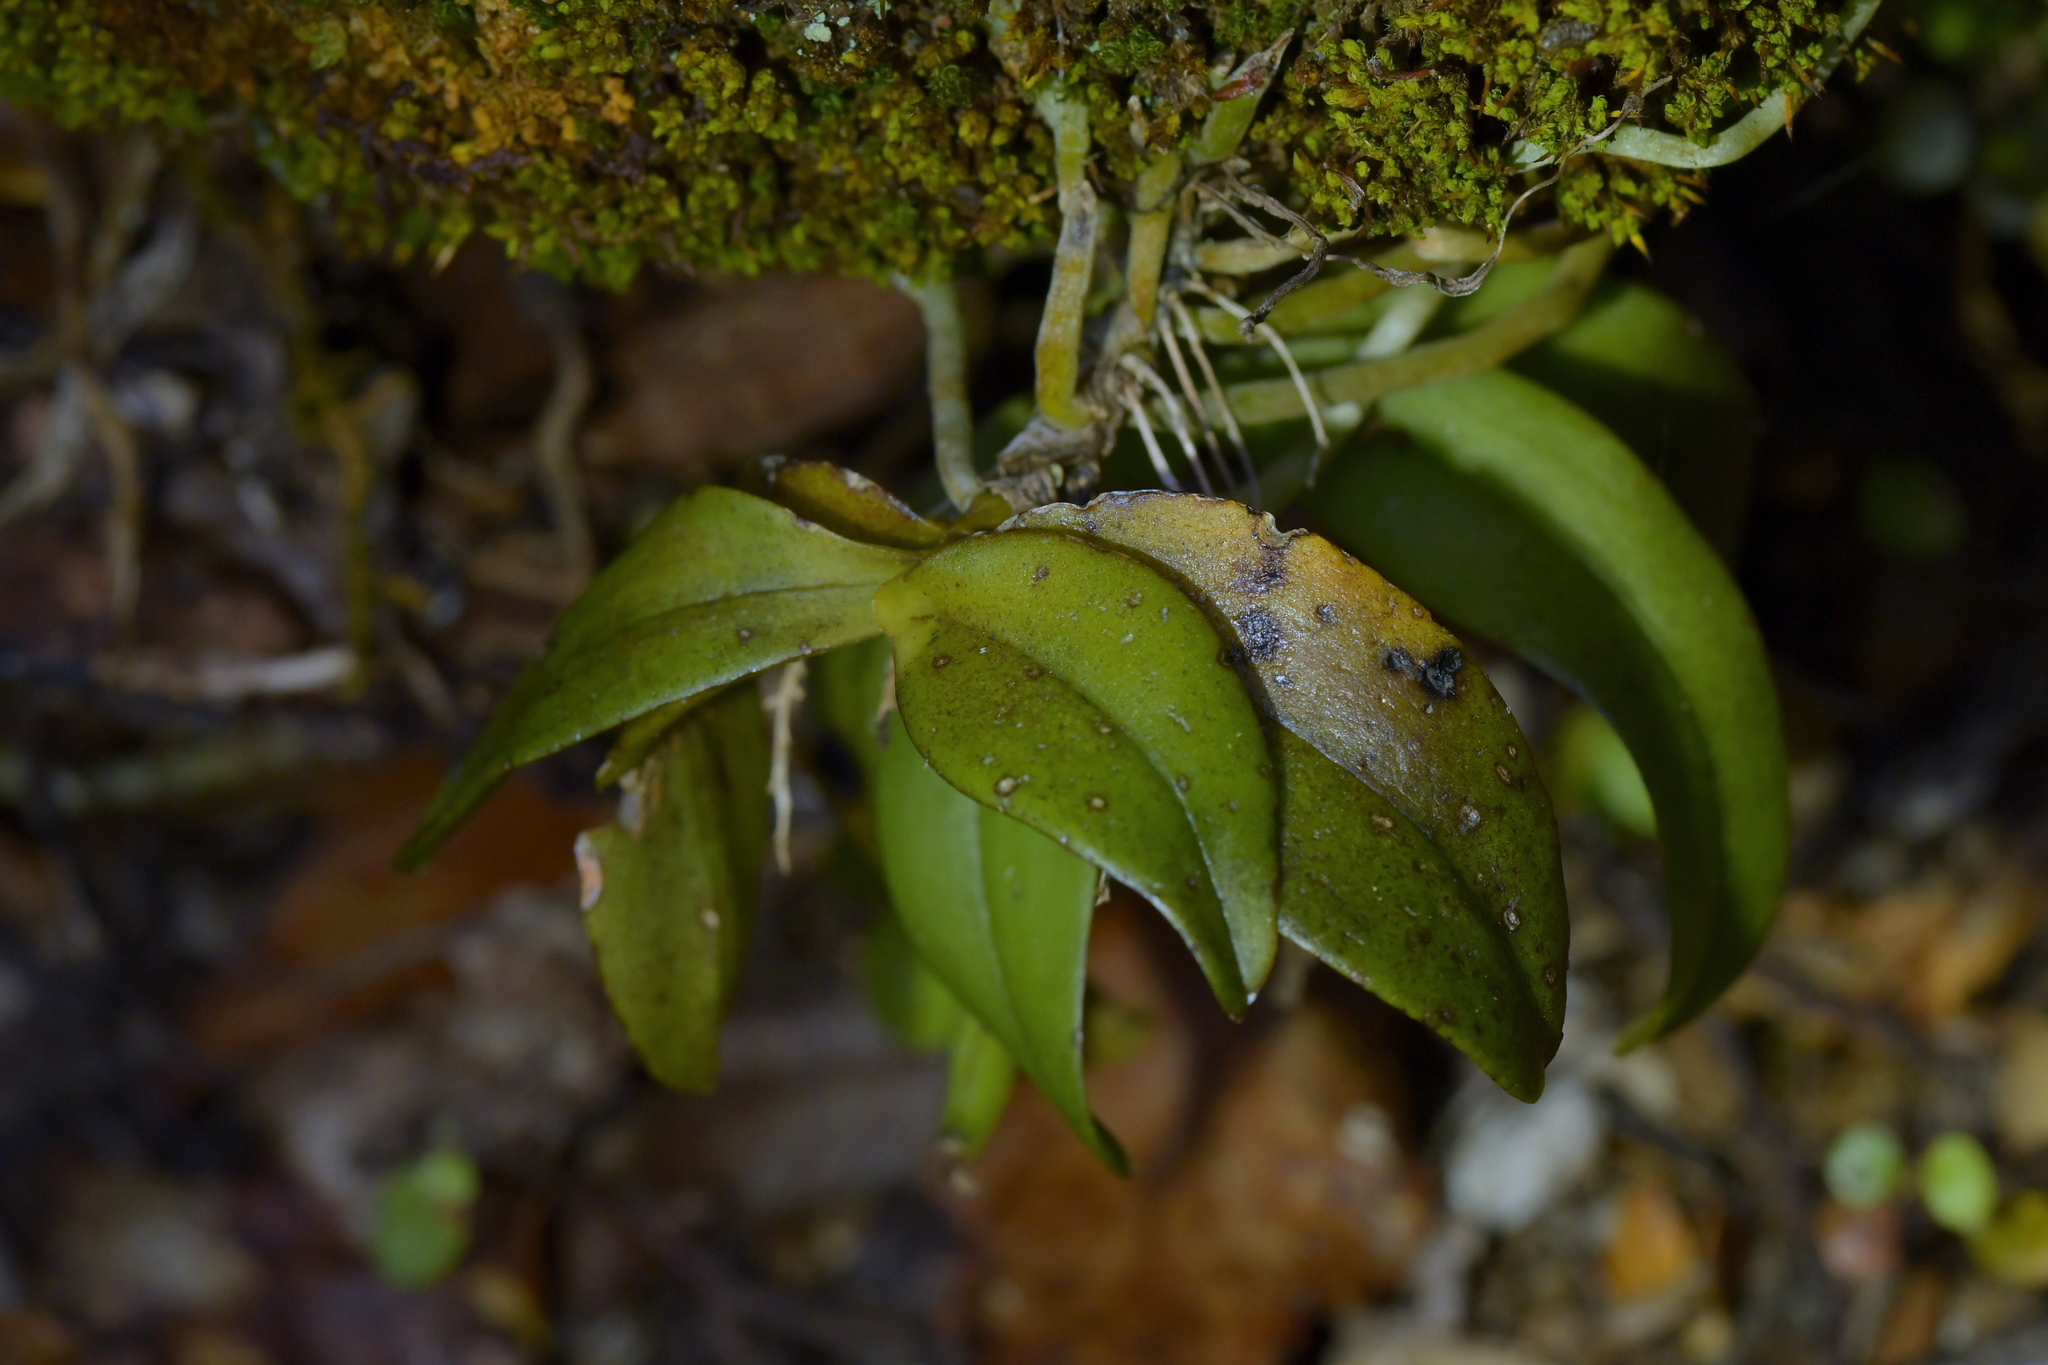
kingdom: Plantae
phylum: Tracheophyta
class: Liliopsida
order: Asparagales
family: Orchidaceae
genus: Drymoanthus
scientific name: Drymoanthus adversus
